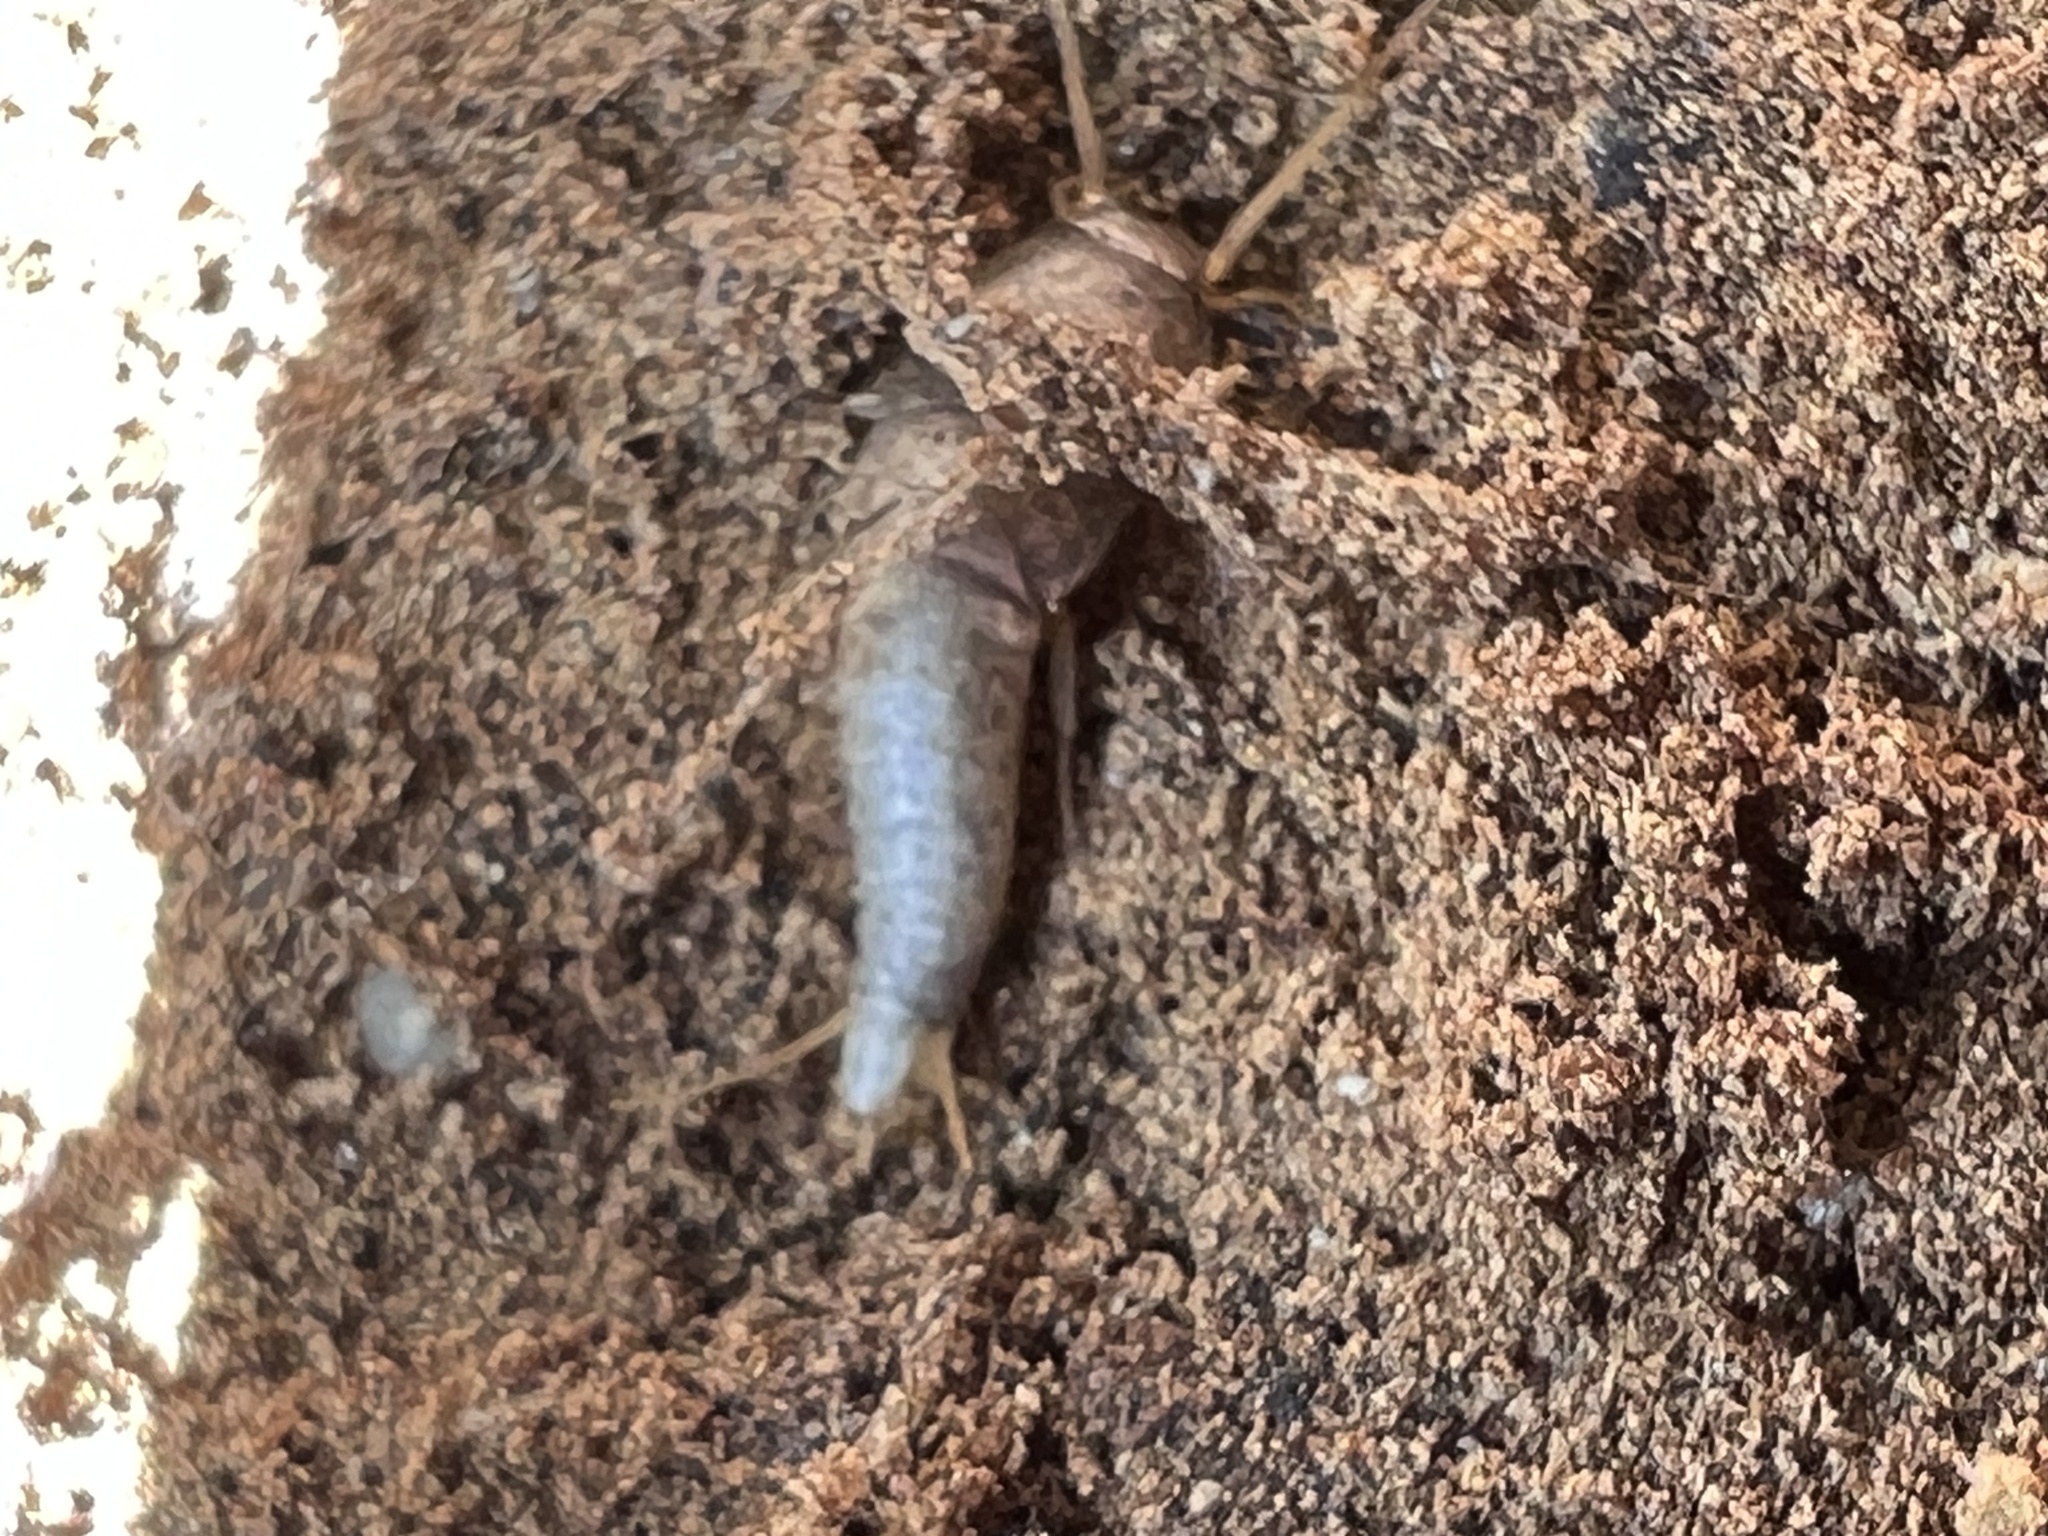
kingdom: Animalia
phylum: Arthropoda
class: Insecta
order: Zygentoma
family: Lepismatidae
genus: Lepisma
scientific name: Lepisma saccharinum
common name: Silverfish
